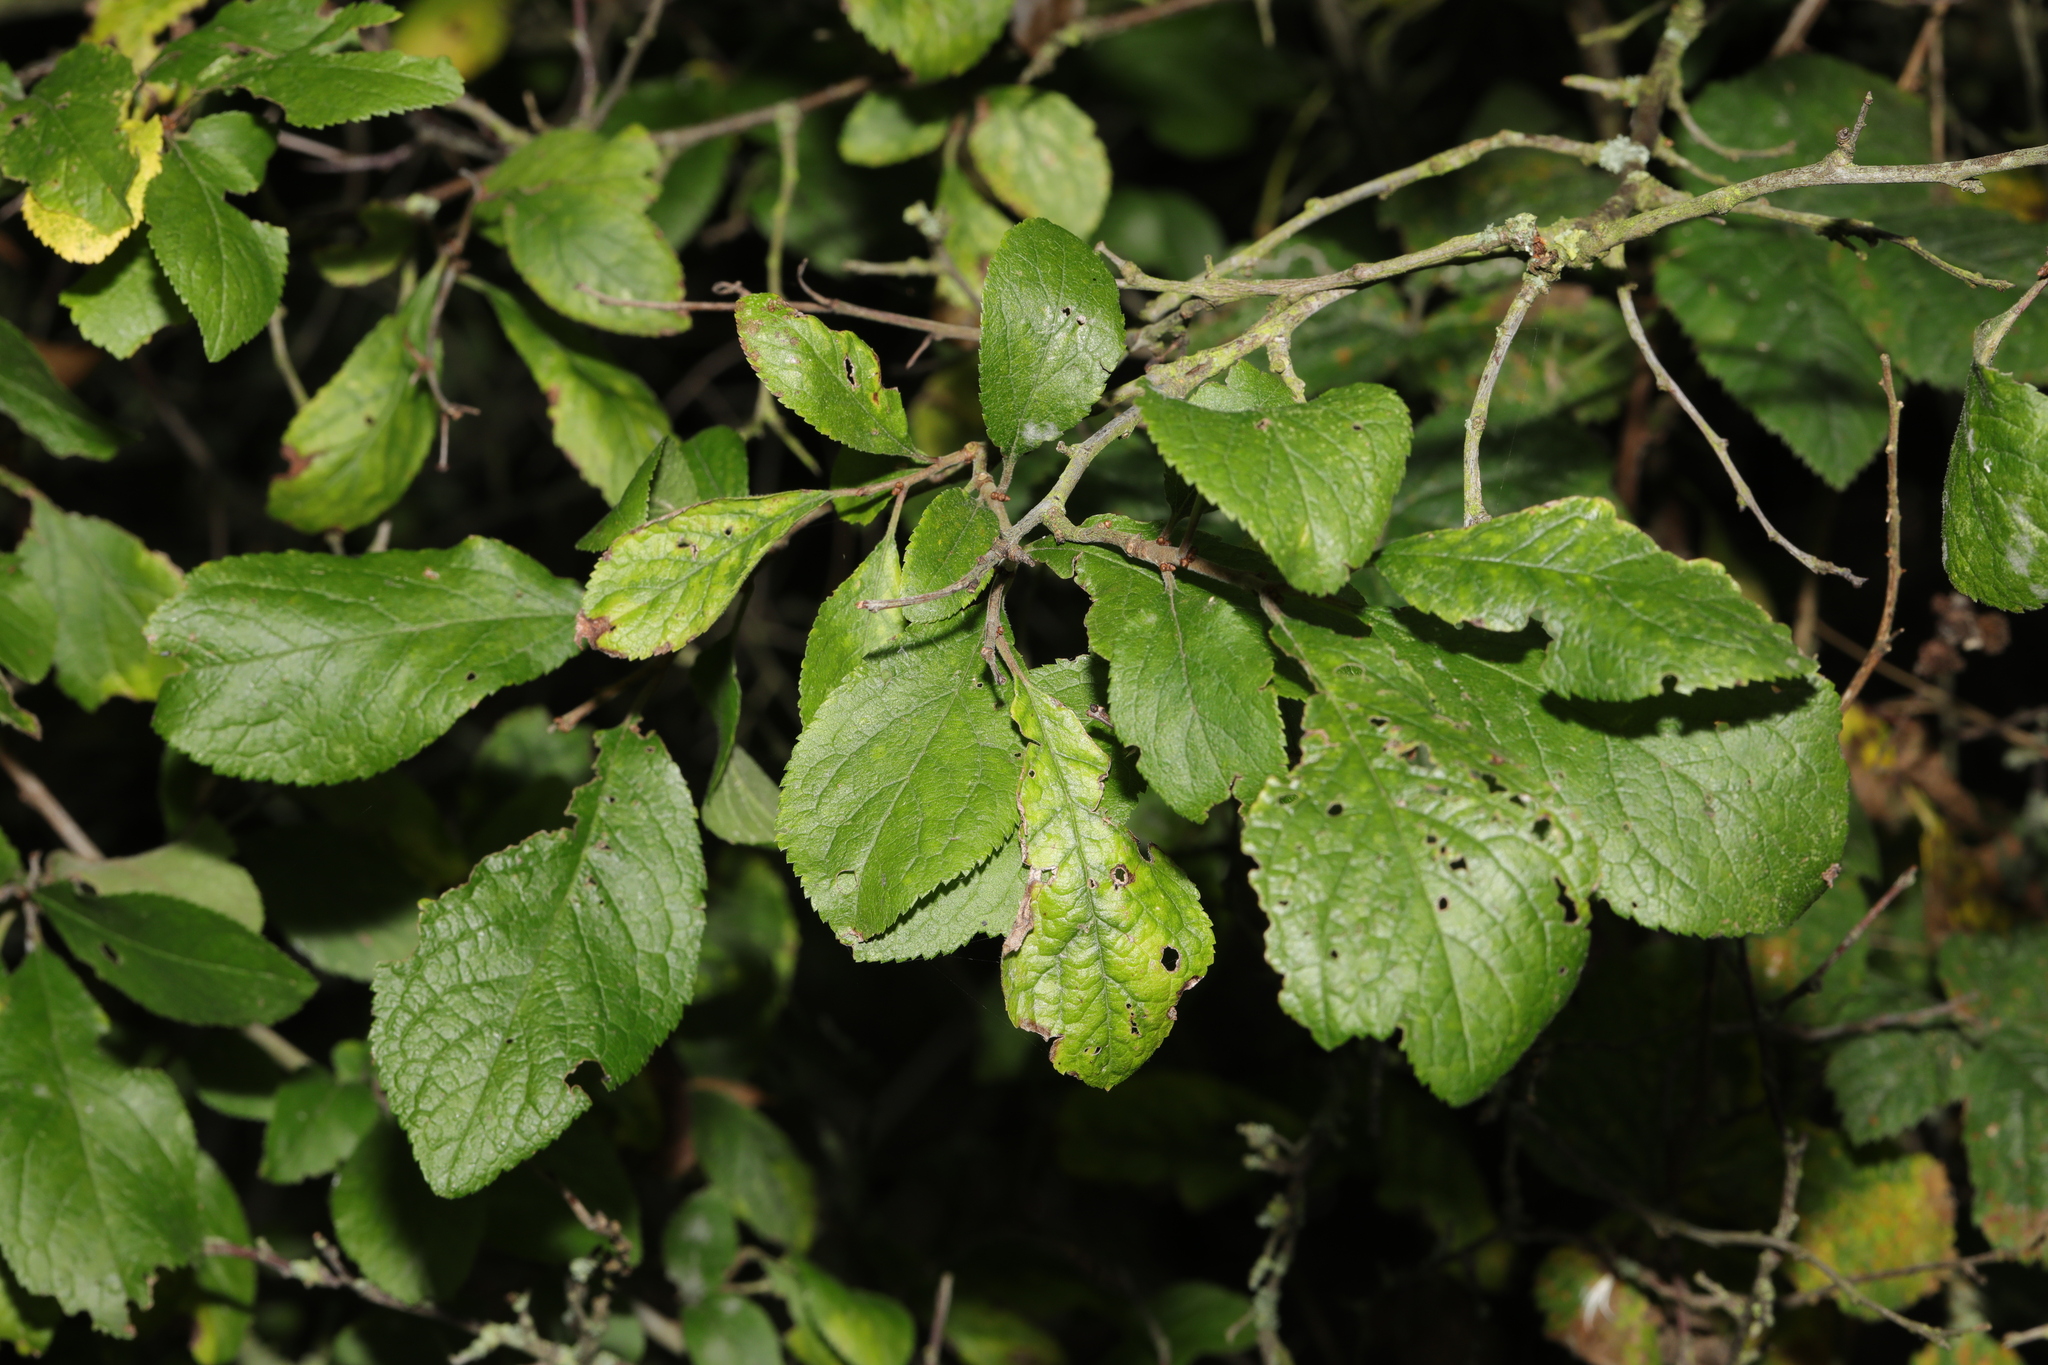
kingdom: Plantae
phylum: Tracheophyta
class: Magnoliopsida
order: Rosales
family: Rosaceae
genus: Prunus
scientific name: Prunus spinosa
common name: Blackthorn
